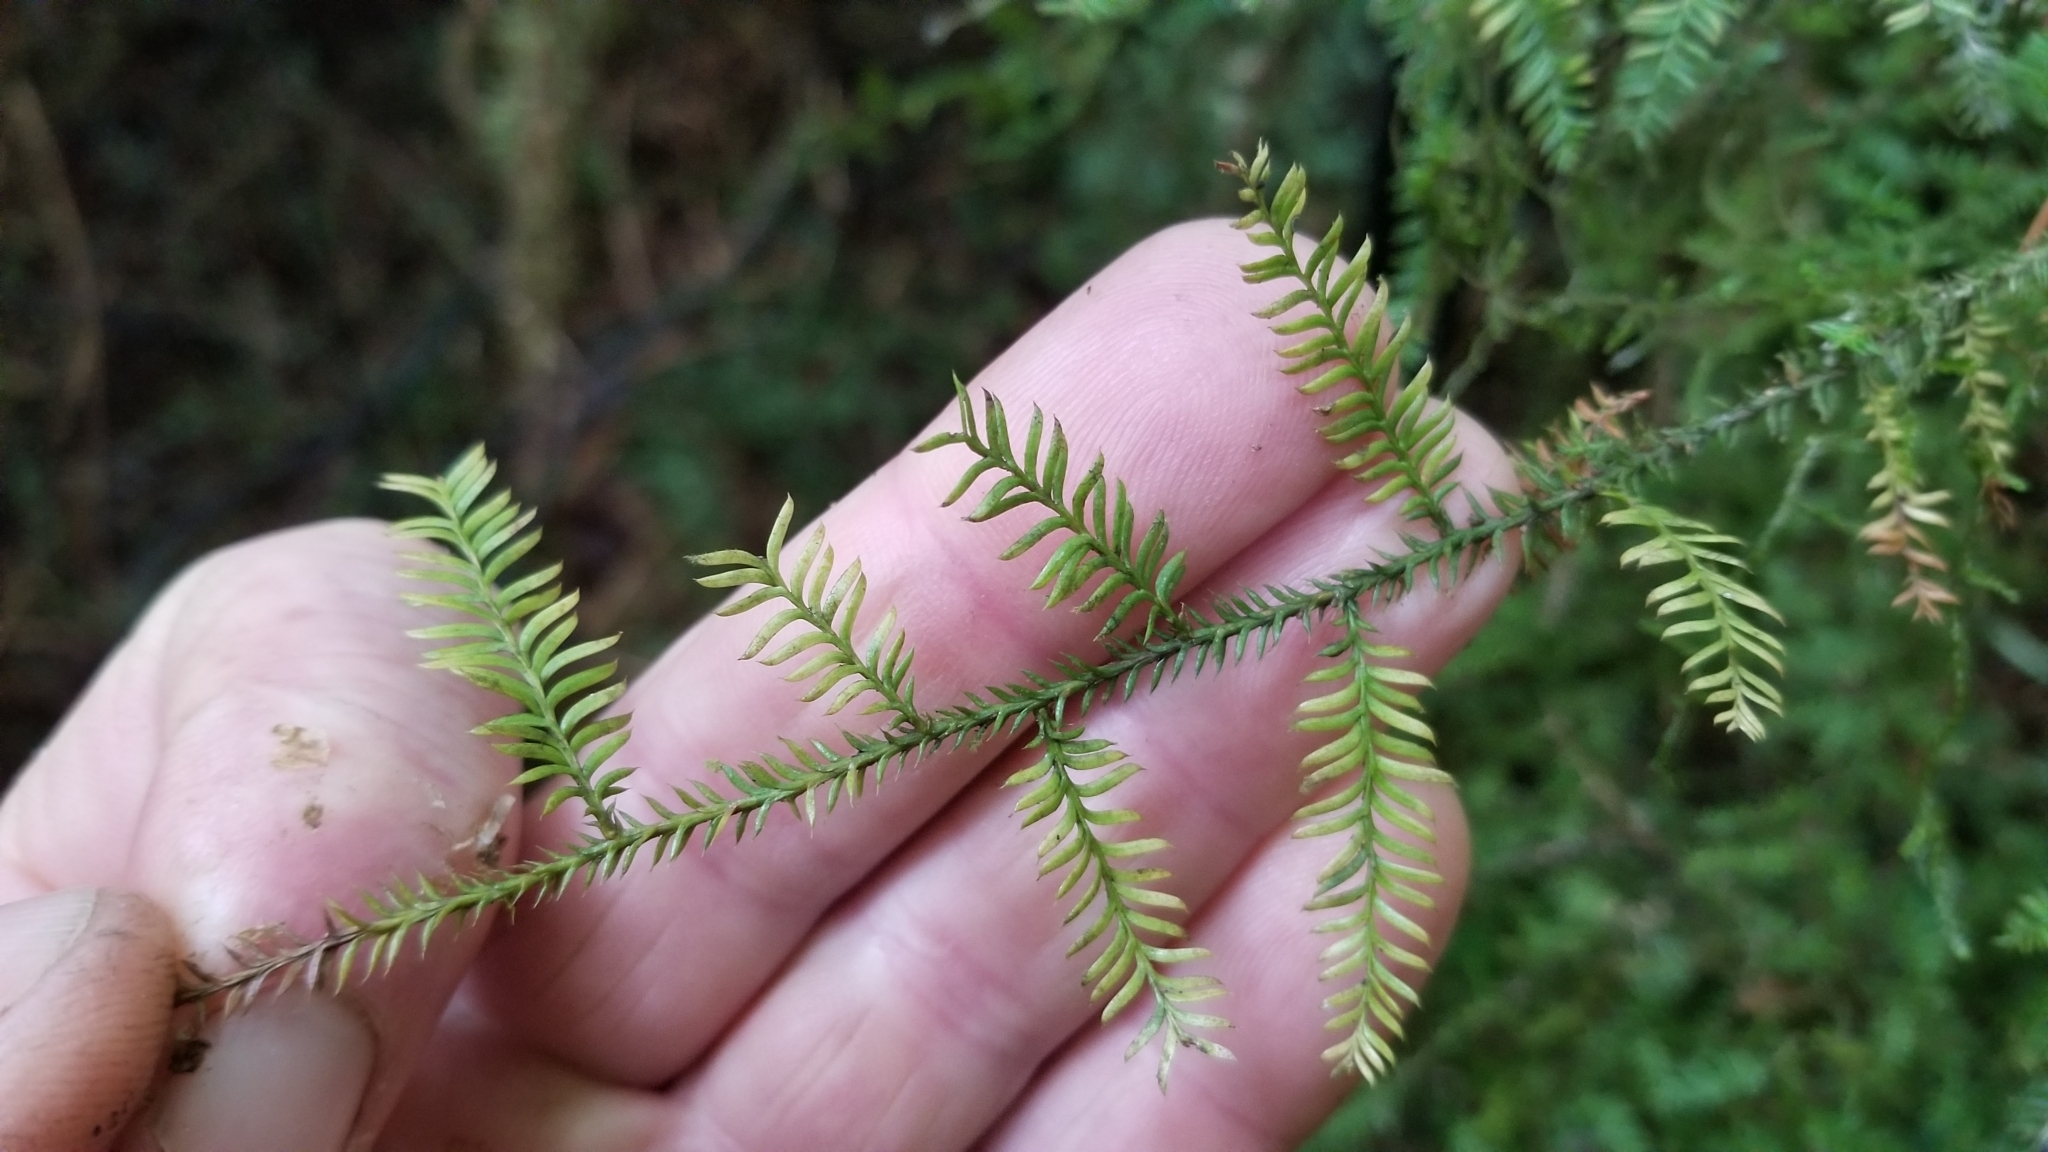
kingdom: Plantae
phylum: Tracheophyta
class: Pinopsida
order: Pinales
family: Podocarpaceae
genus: Dacrycarpus
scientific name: Dacrycarpus dacrydioides
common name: White pine
